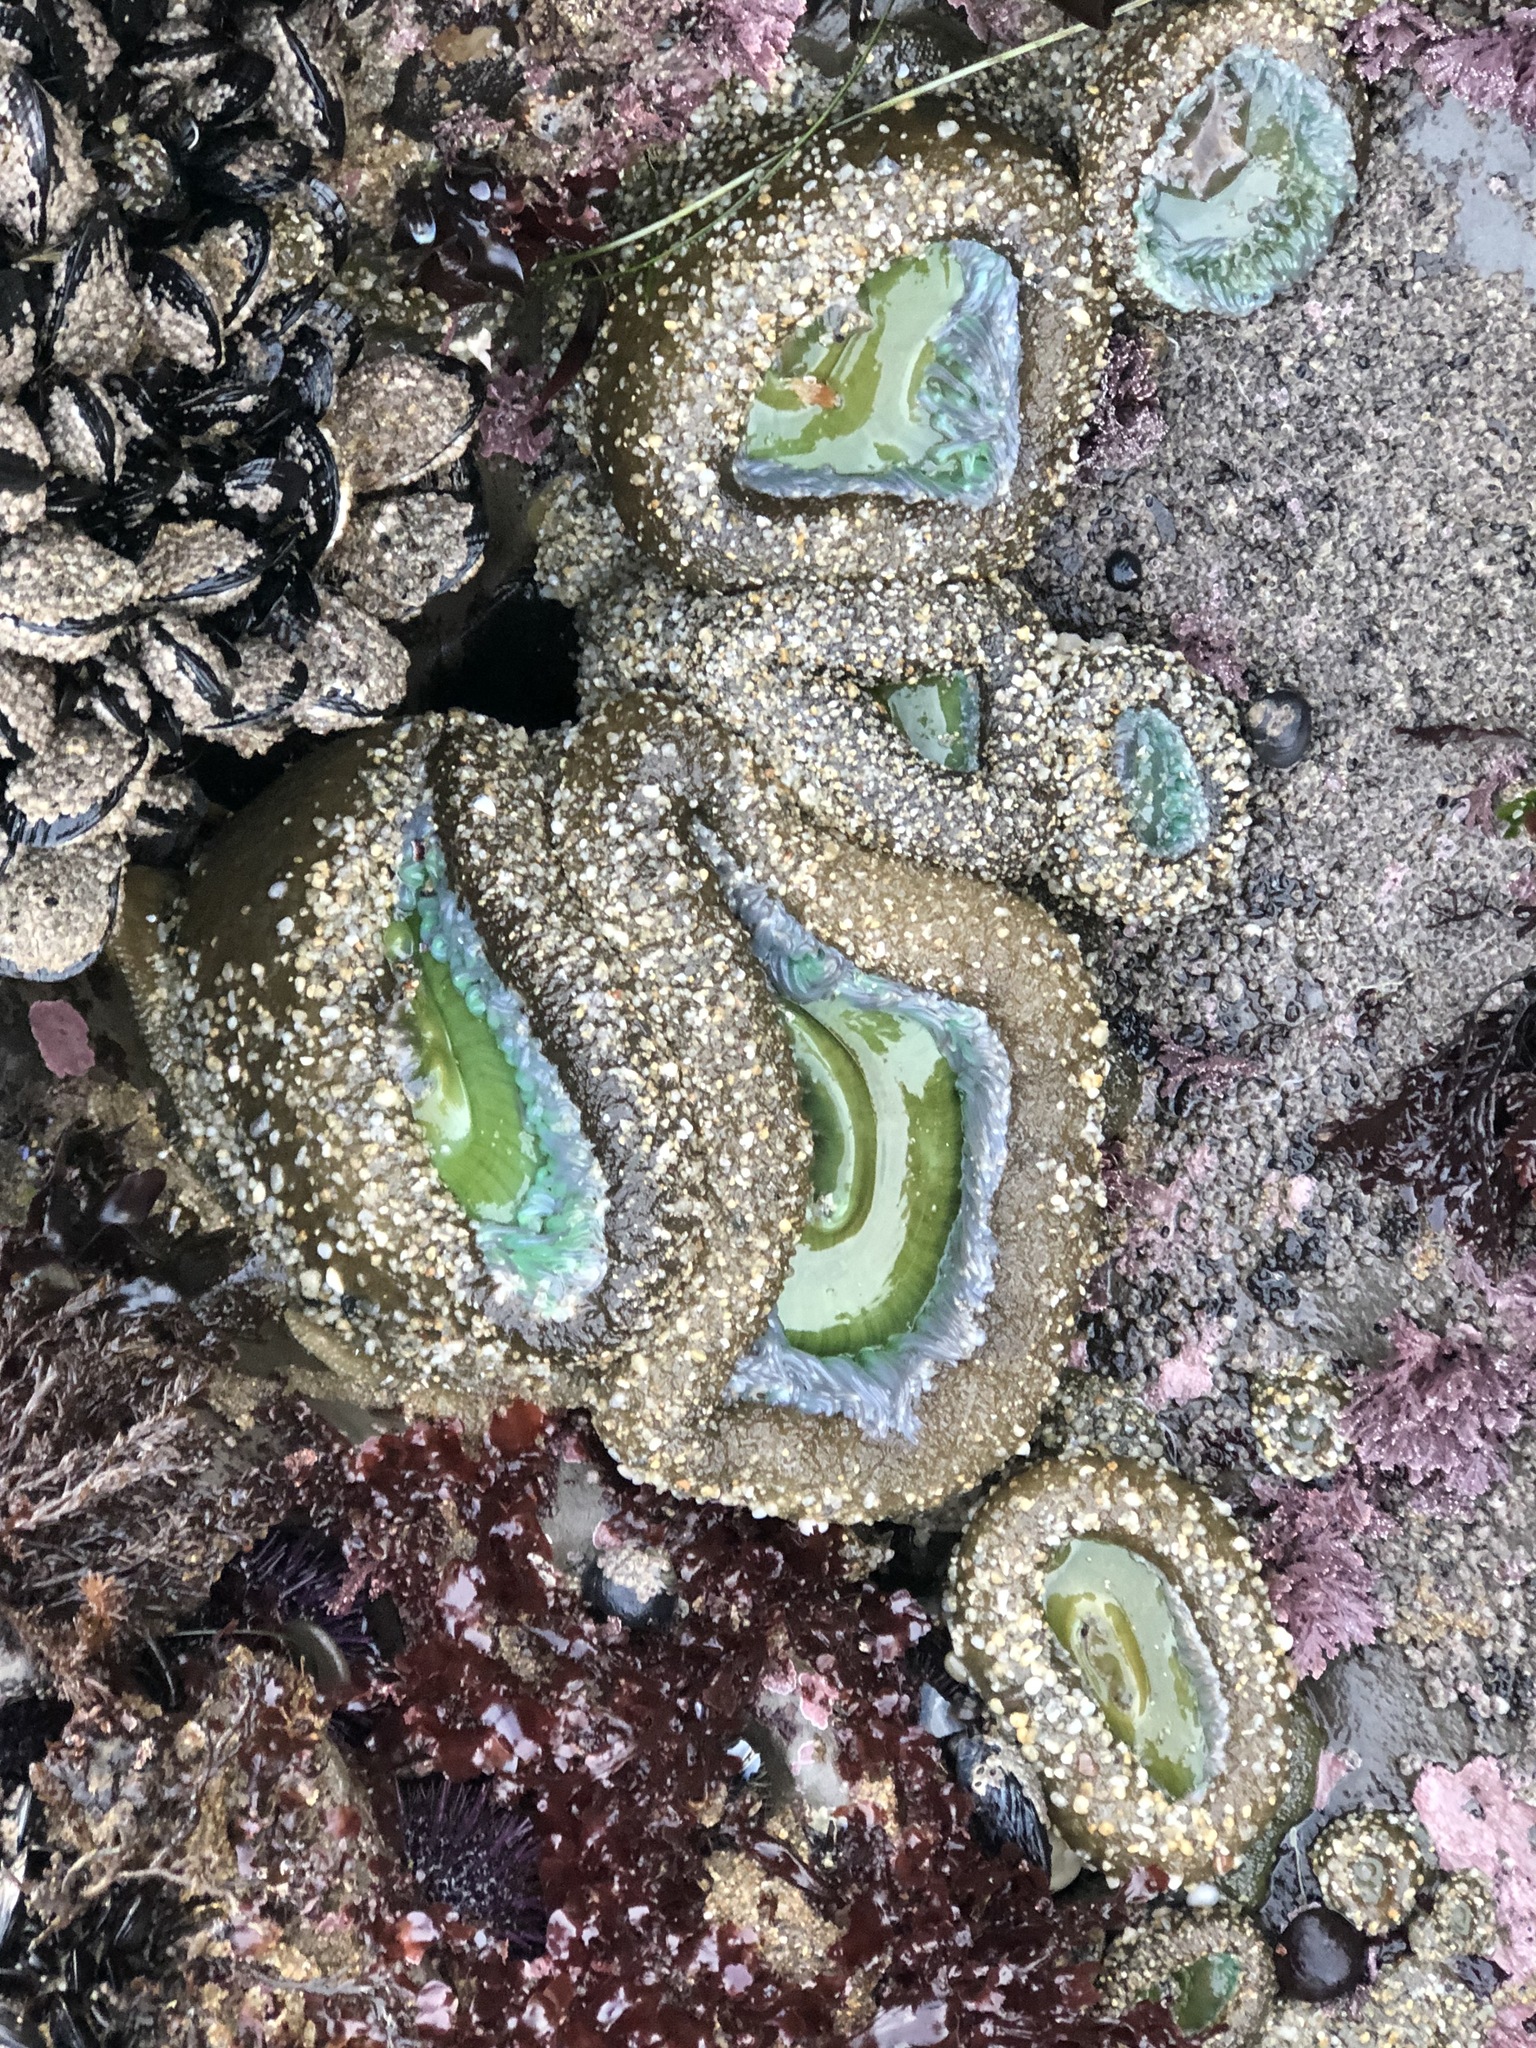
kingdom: Animalia
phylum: Cnidaria
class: Anthozoa
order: Actiniaria
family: Actiniidae
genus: Anthopleura
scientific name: Anthopleura xanthogrammica
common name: Giant green anemone
